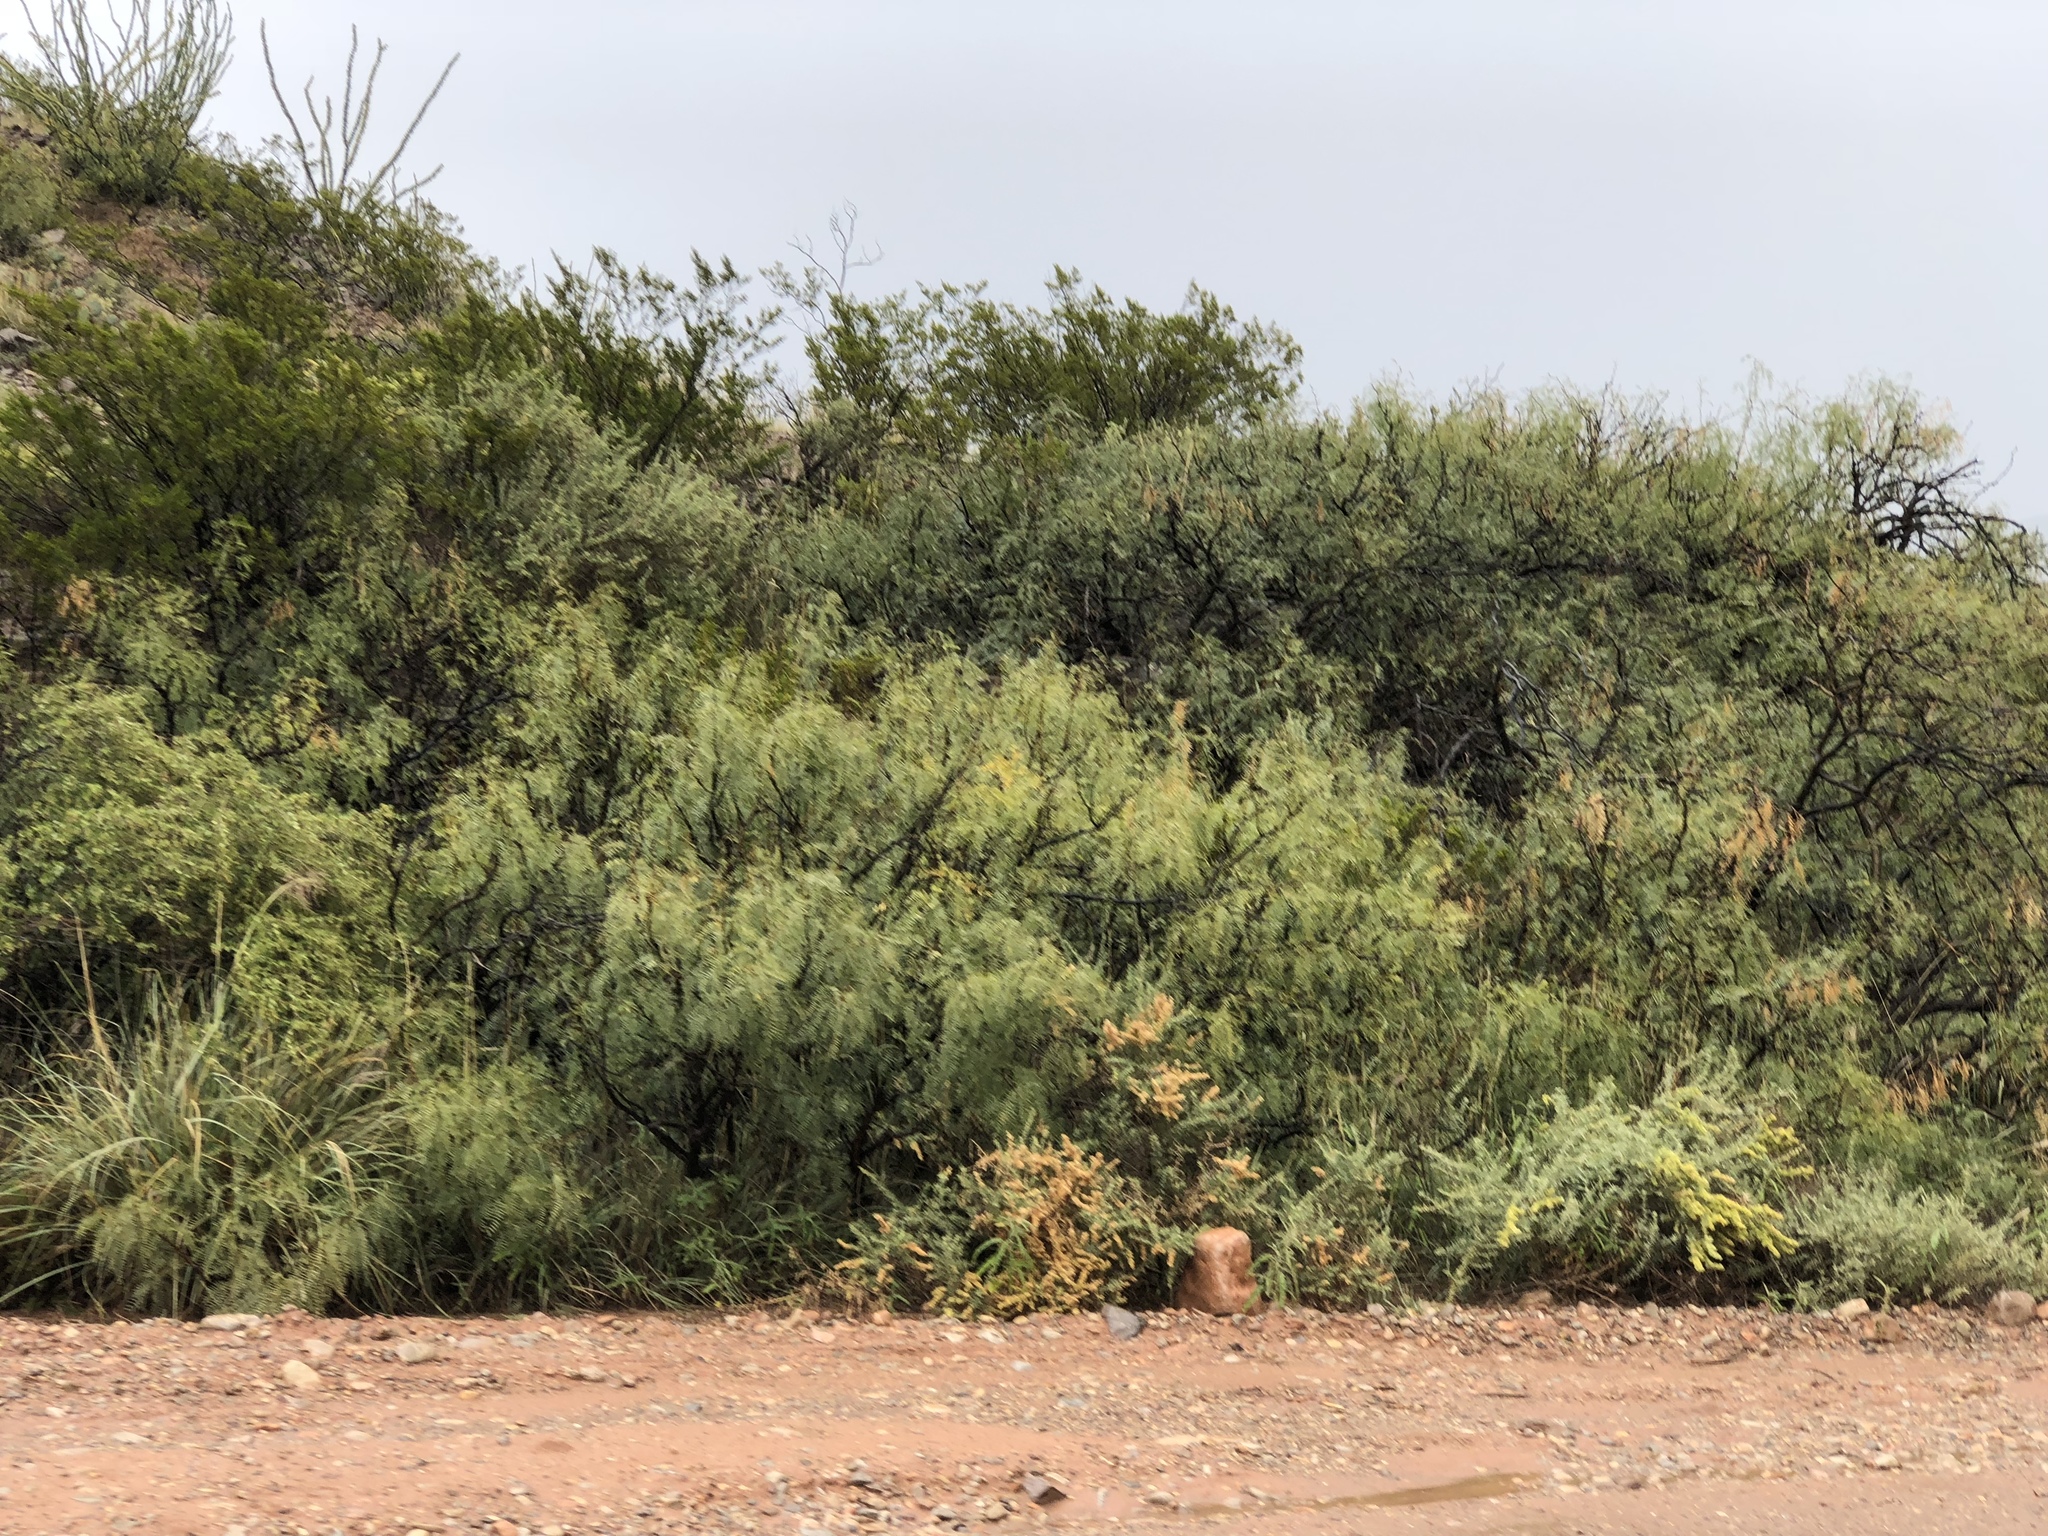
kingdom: Plantae
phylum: Tracheophyta
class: Magnoliopsida
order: Fabales
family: Fabaceae
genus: Prosopis
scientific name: Prosopis glandulosa
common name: Honey mesquite
